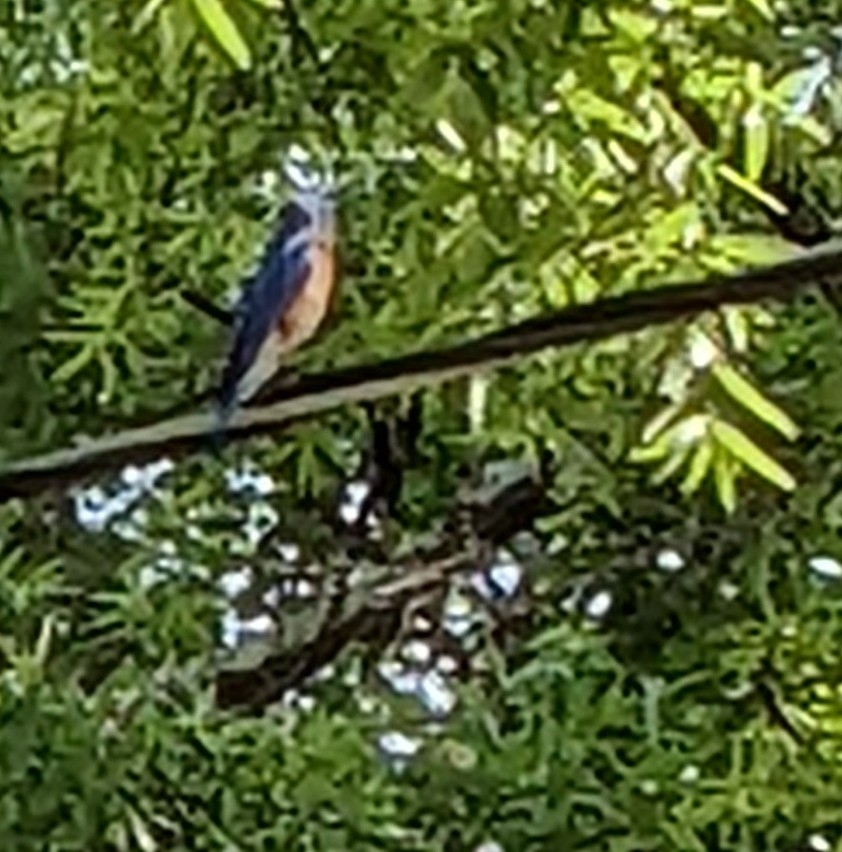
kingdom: Animalia
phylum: Chordata
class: Aves
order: Passeriformes
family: Turdidae
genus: Sialia
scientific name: Sialia sialis
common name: Eastern bluebird
